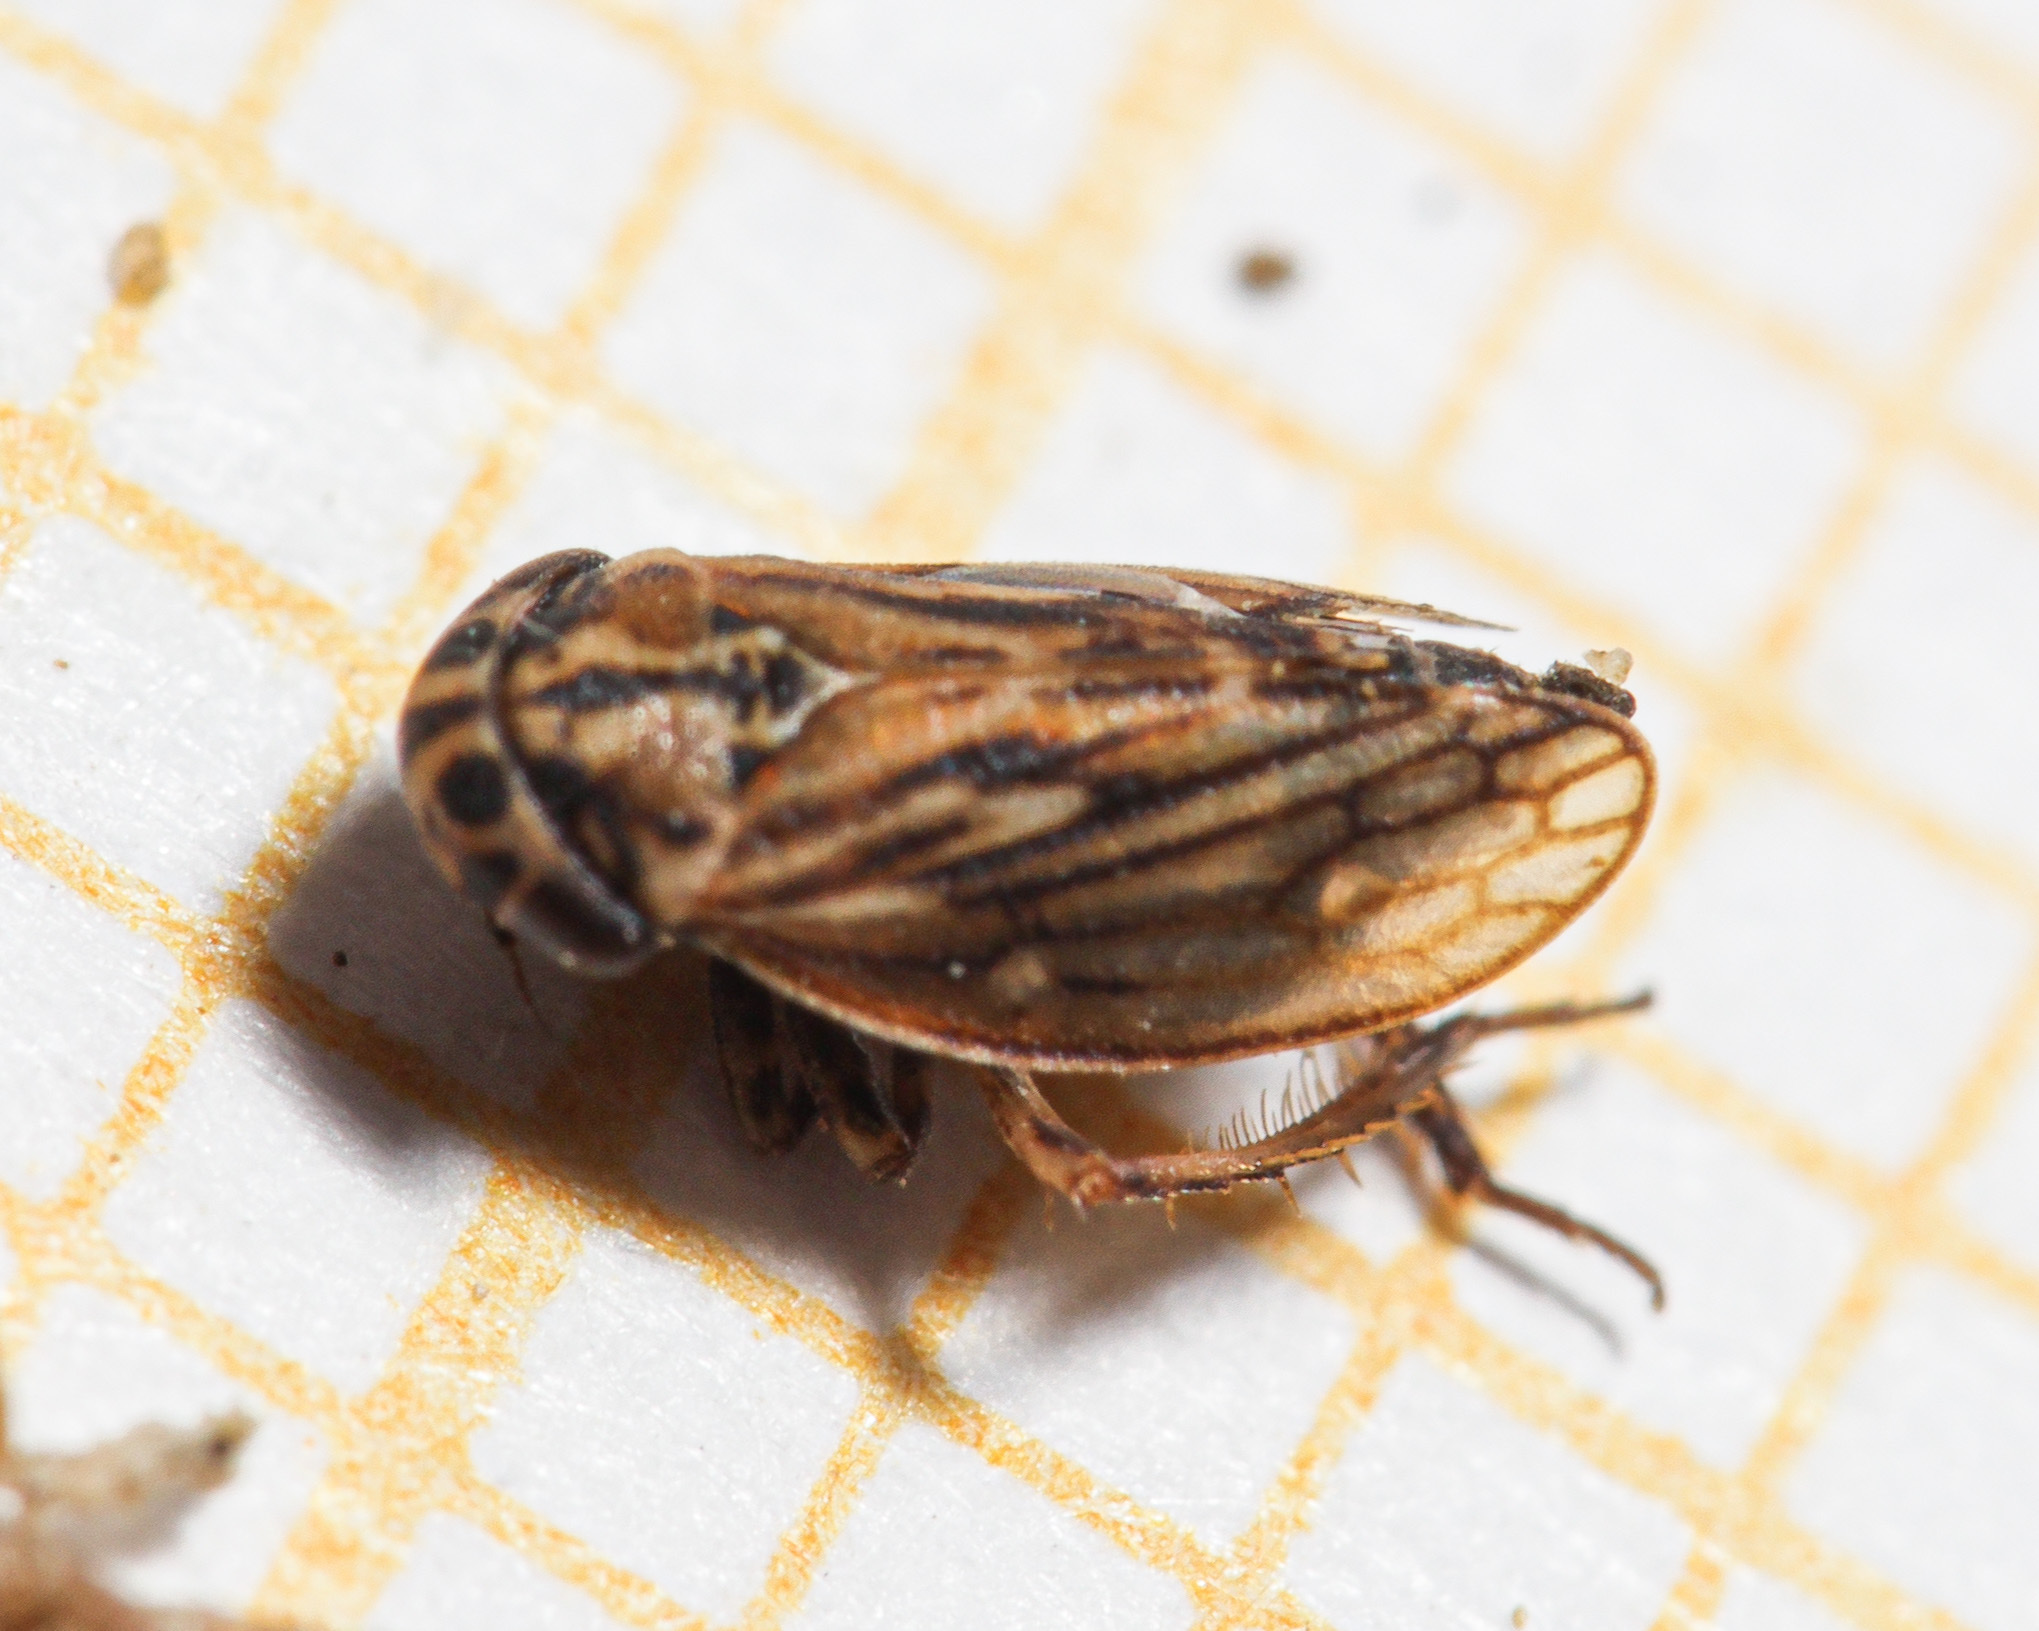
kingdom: Animalia
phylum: Arthropoda
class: Insecta
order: Hemiptera
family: Cicadellidae
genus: Anaceratagallia
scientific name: Anaceratagallia
